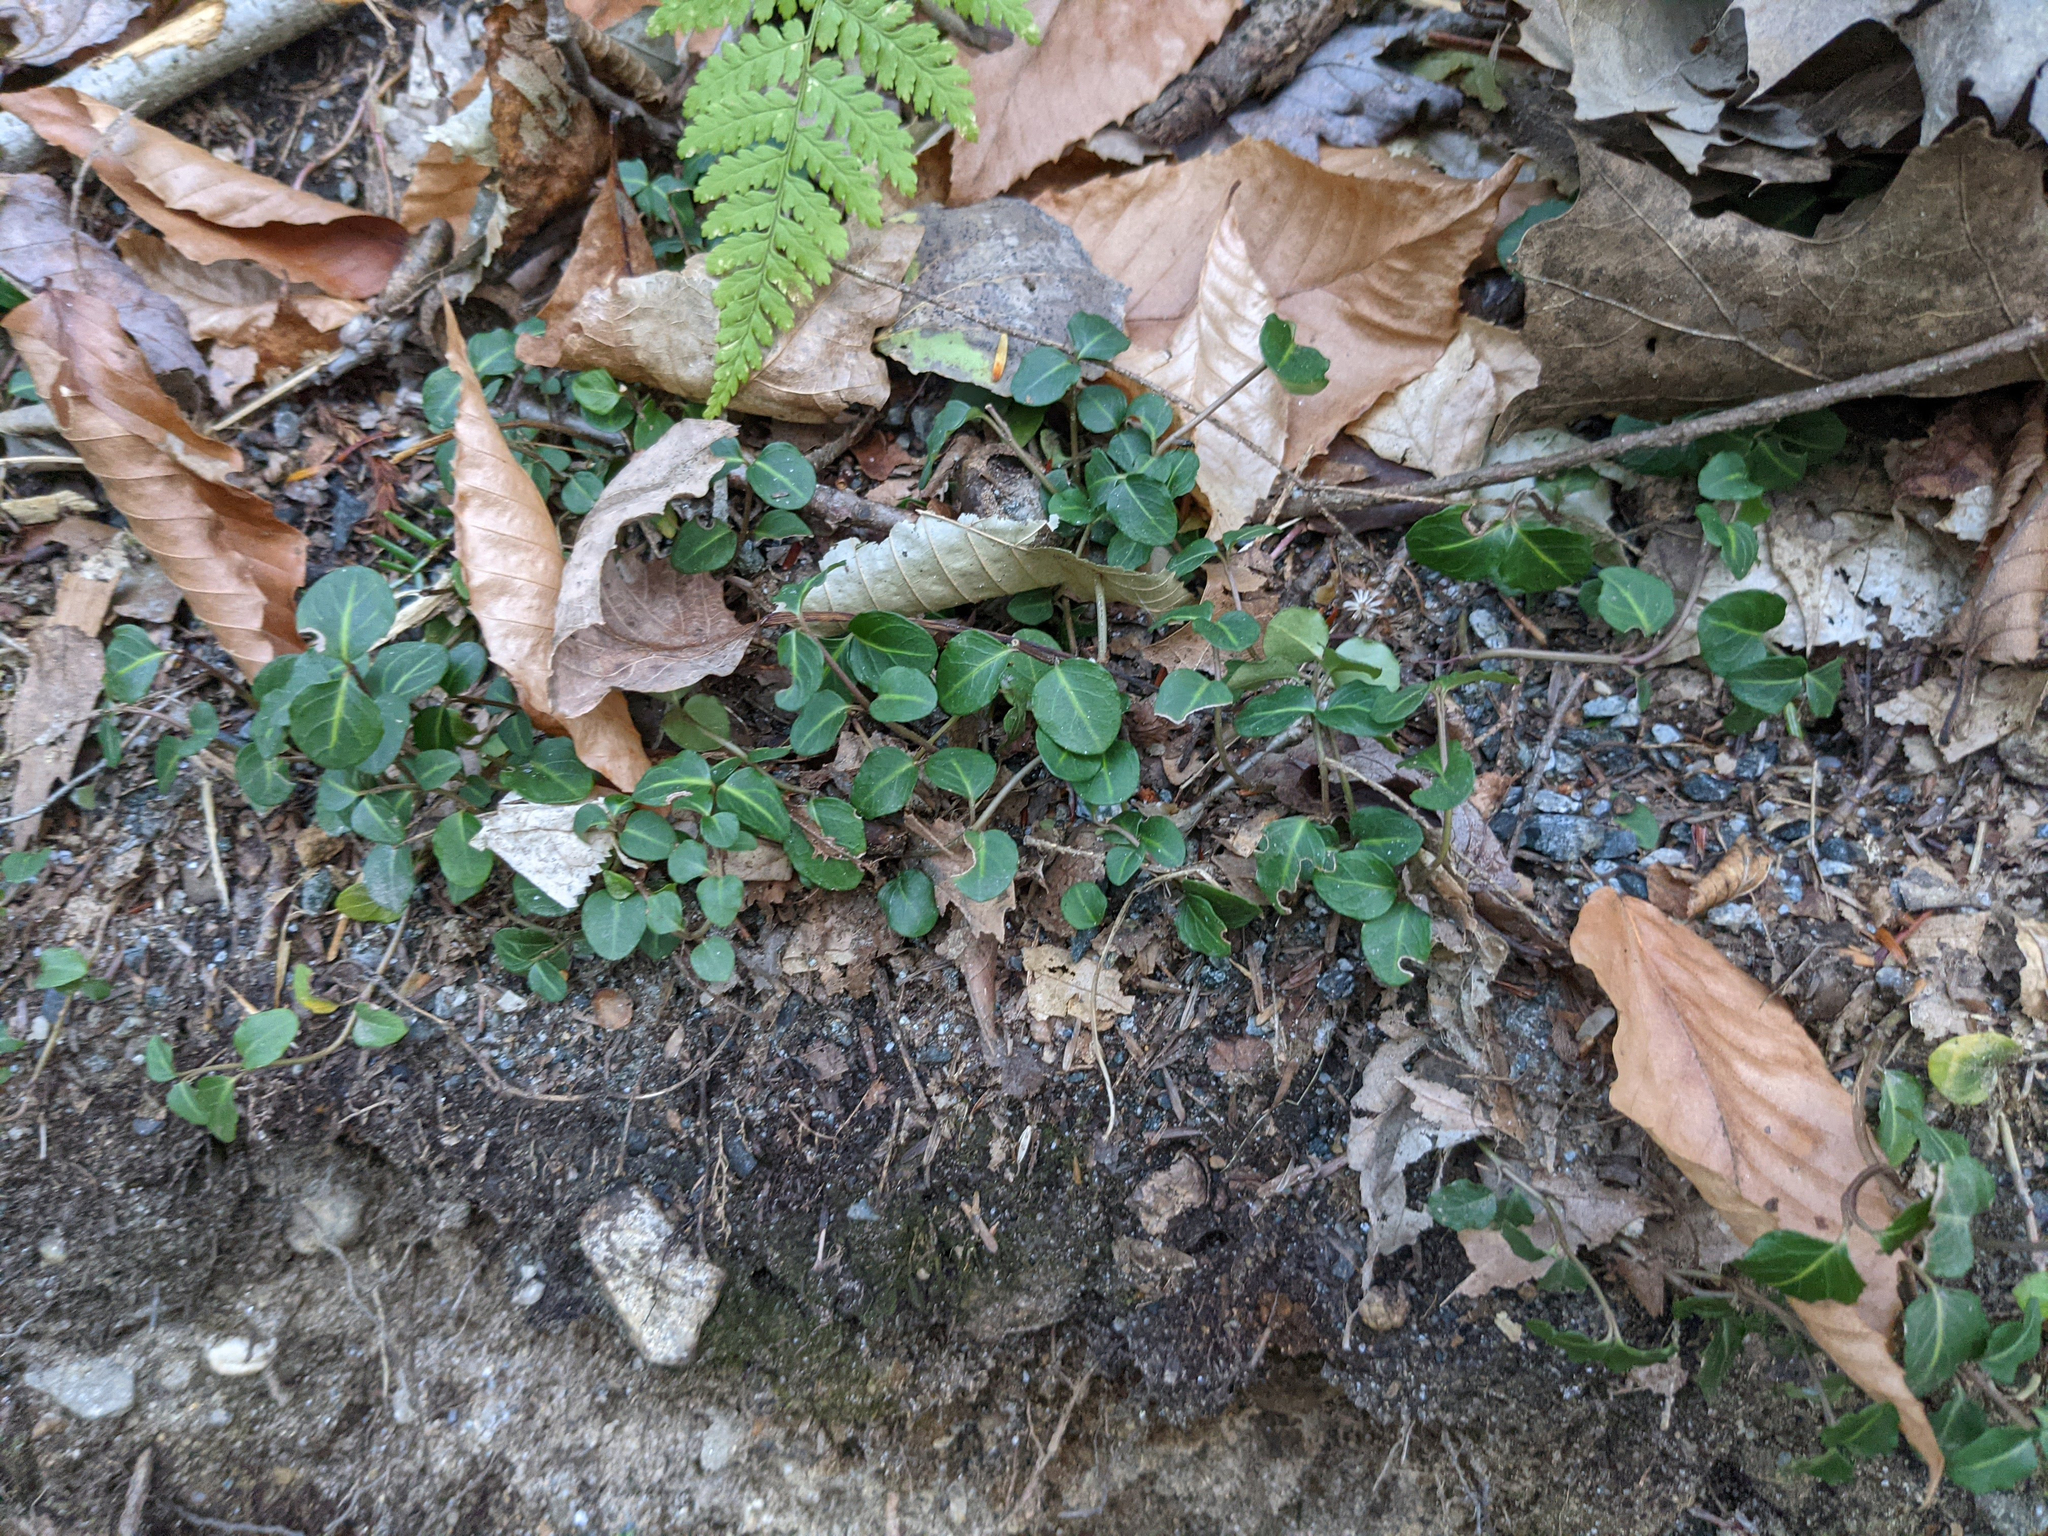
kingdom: Plantae
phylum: Tracheophyta
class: Magnoliopsida
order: Gentianales
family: Rubiaceae
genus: Mitchella
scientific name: Mitchella repens
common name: Partridge-berry
